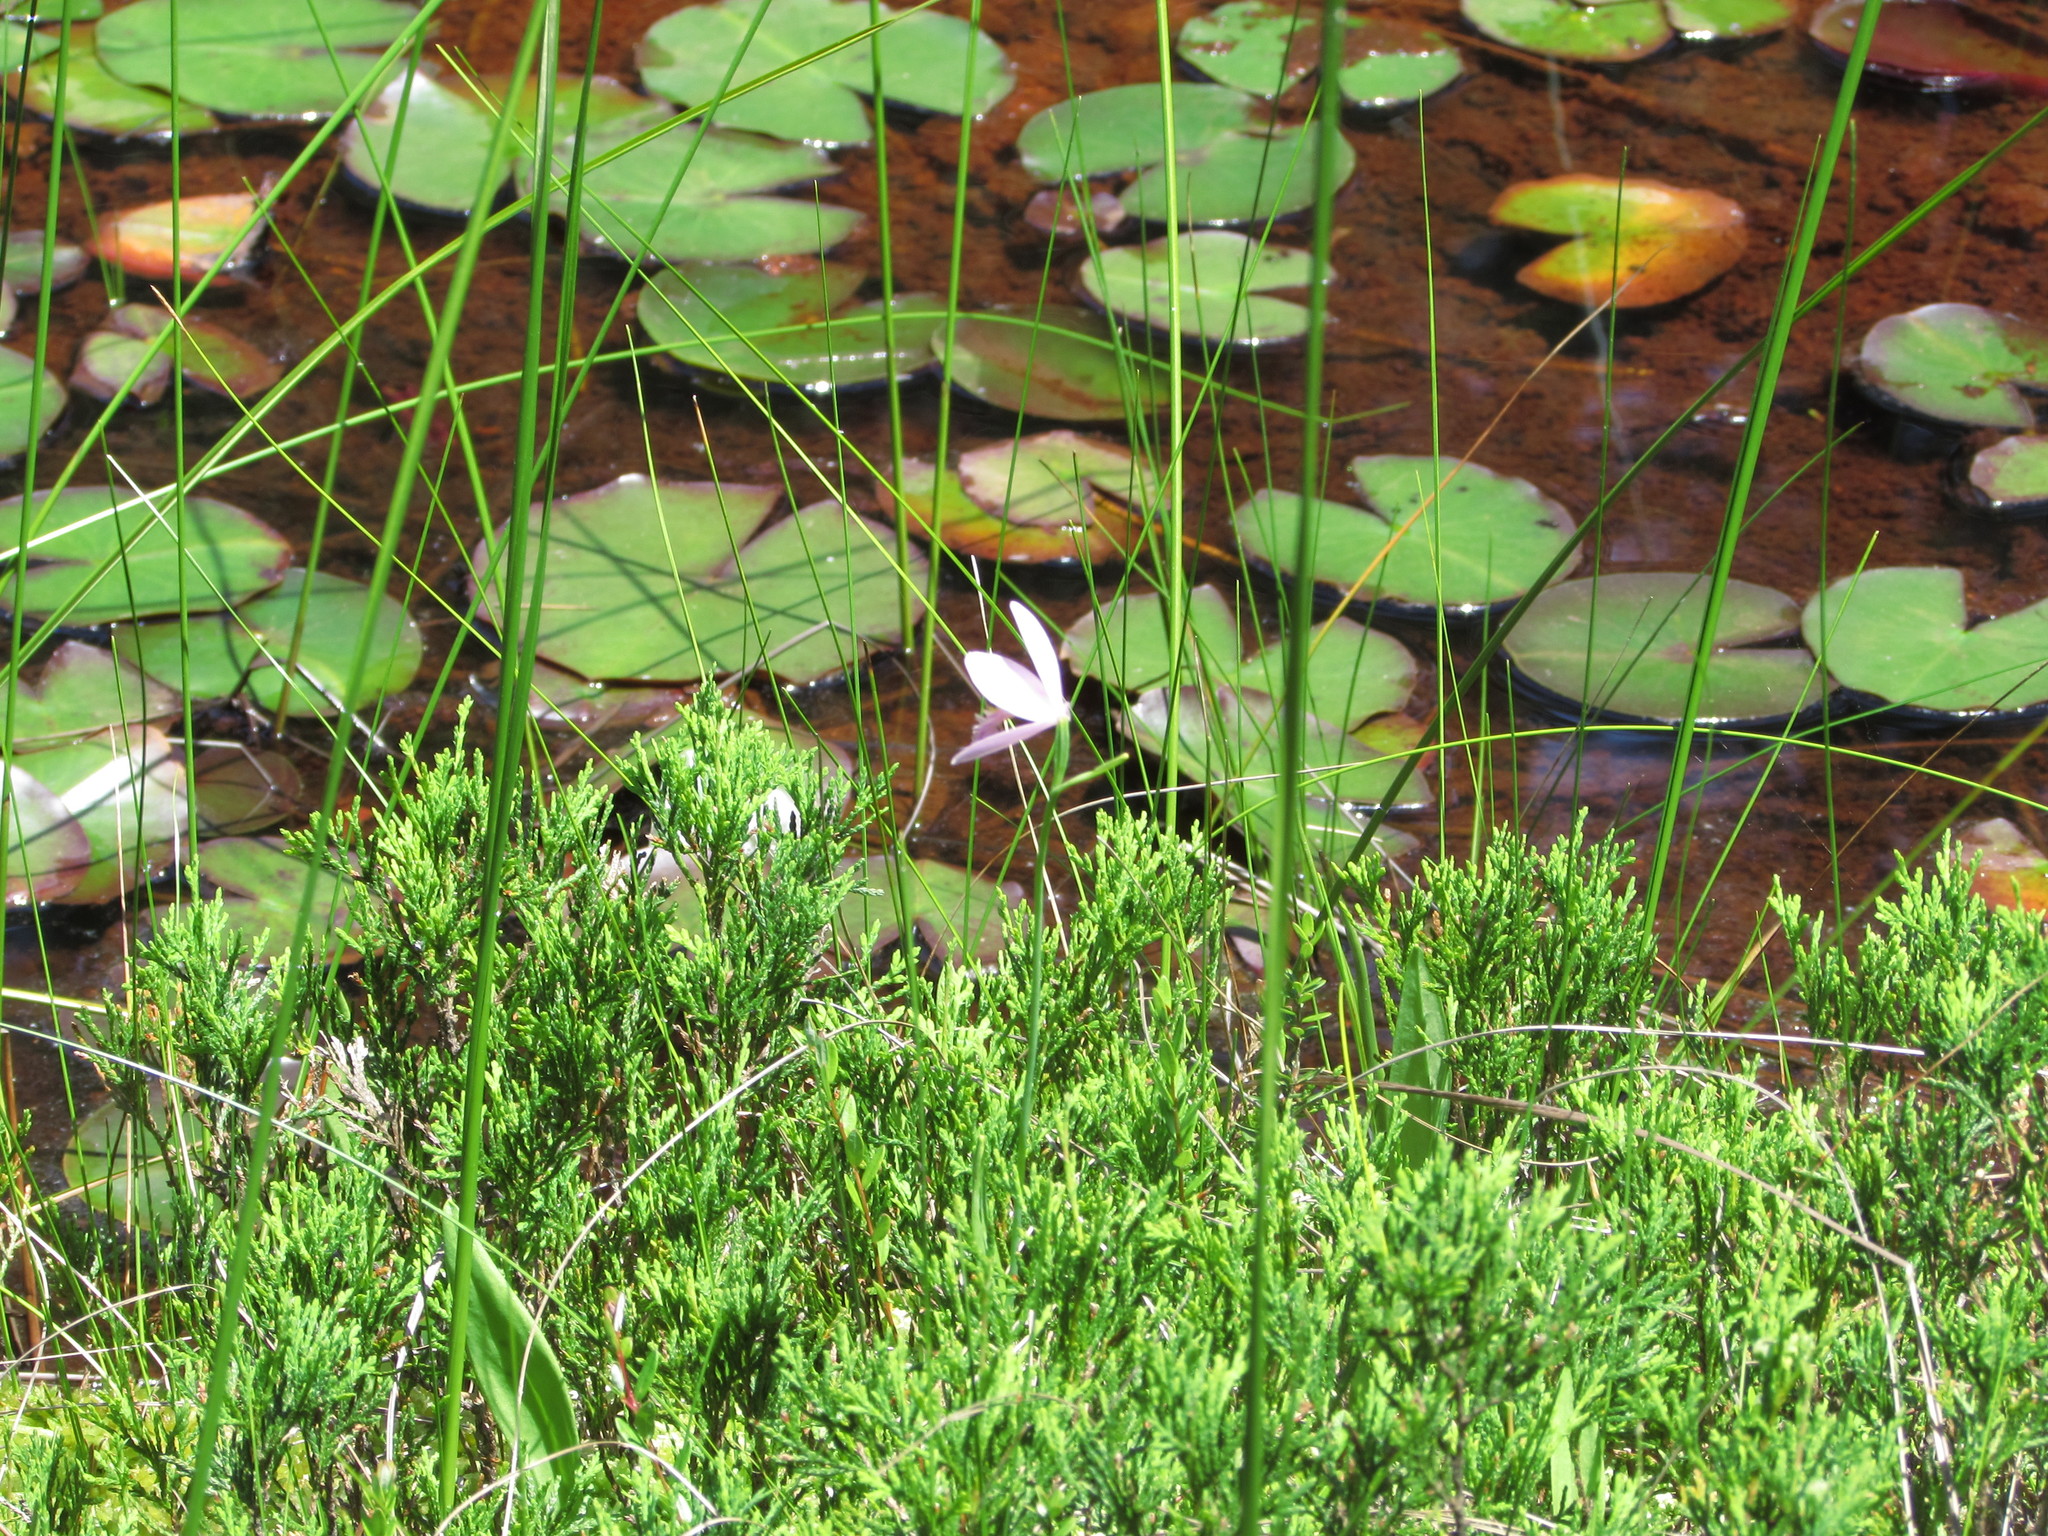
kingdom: Plantae
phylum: Tracheophyta
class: Liliopsida
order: Asparagales
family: Orchidaceae
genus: Pogonia
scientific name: Pogonia ophioglossoides
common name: Rose pogonia
